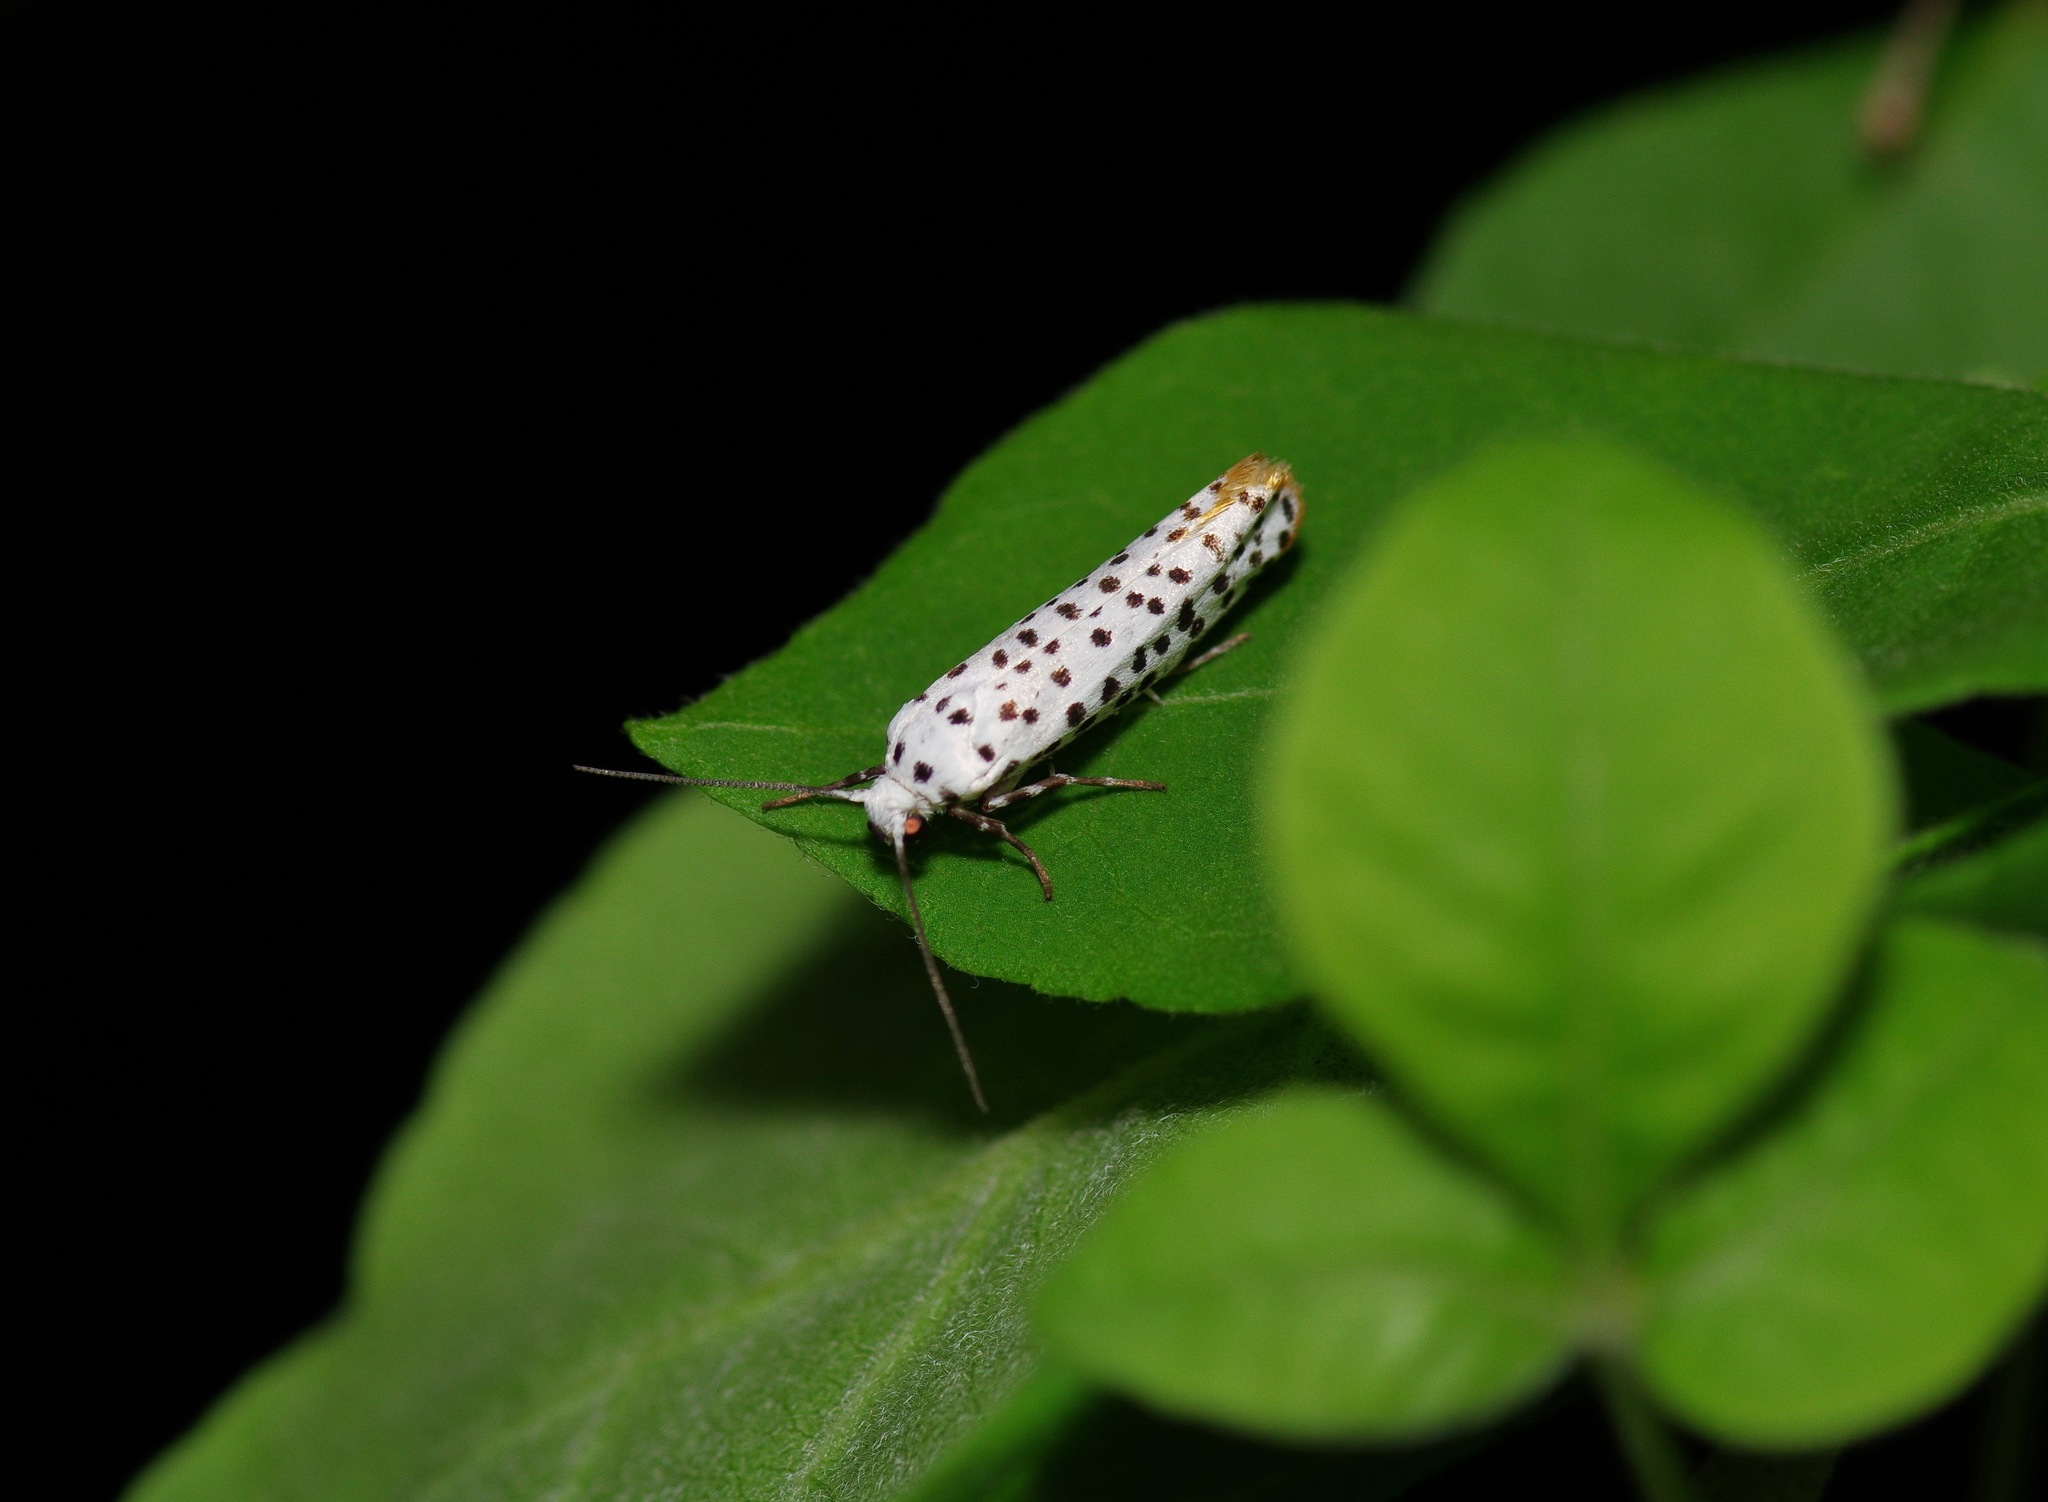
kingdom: Animalia
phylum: Arthropoda
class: Insecta
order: Lepidoptera
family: Noctuidae
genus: Cerathosia
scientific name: Cerathosia tricolor
